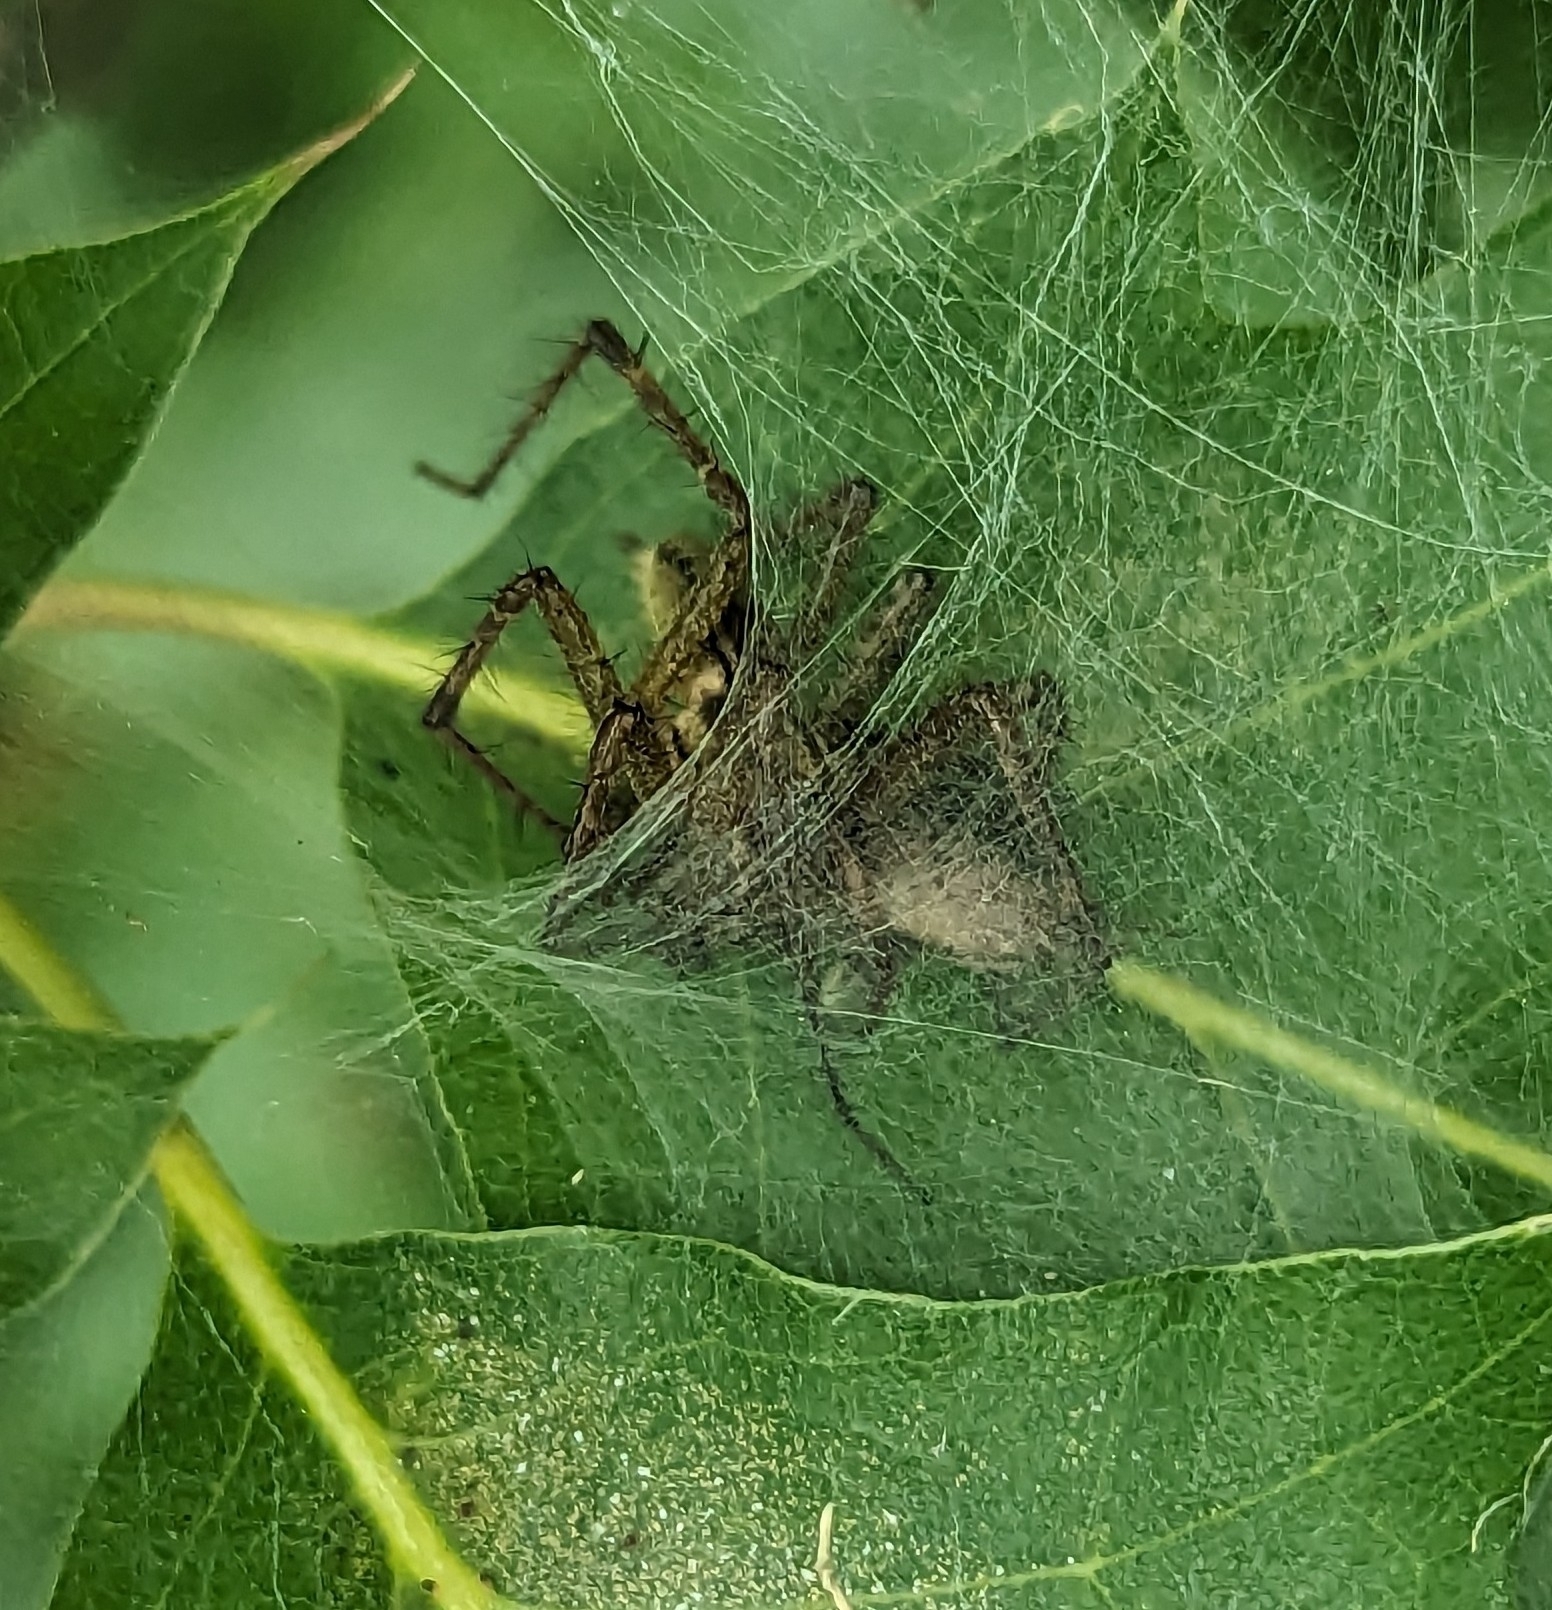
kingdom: Animalia
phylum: Arthropoda
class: Arachnida
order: Araneae
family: Agelenidae
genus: Agelenopsis
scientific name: Agelenopsis
